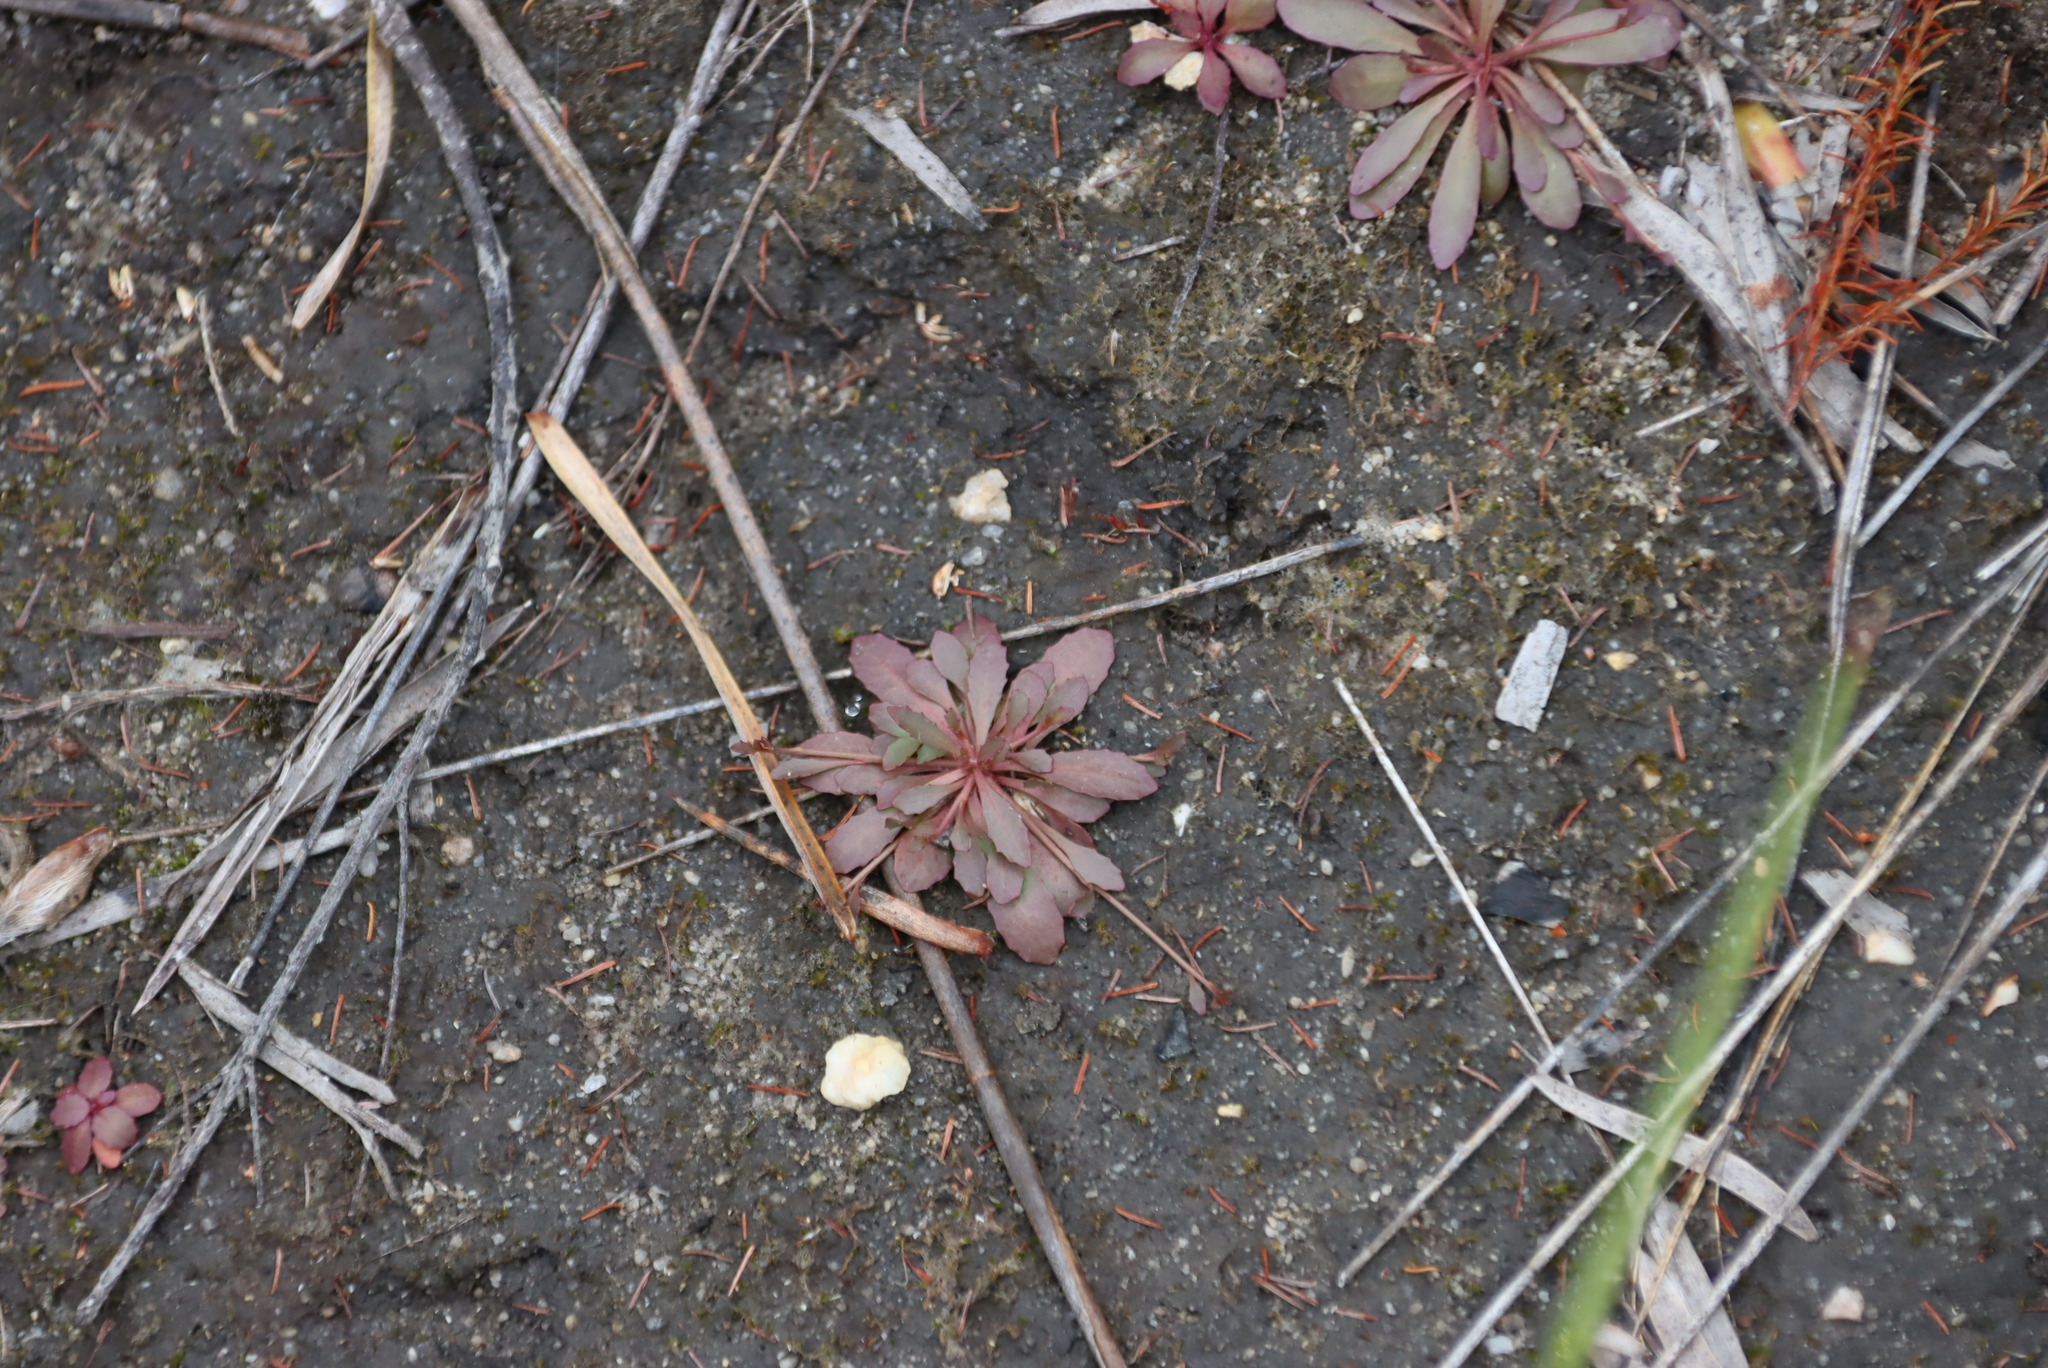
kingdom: Plantae
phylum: Tracheophyta
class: Magnoliopsida
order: Asterales
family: Campanulaceae
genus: Wimmerella
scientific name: Wimmerella secunda
